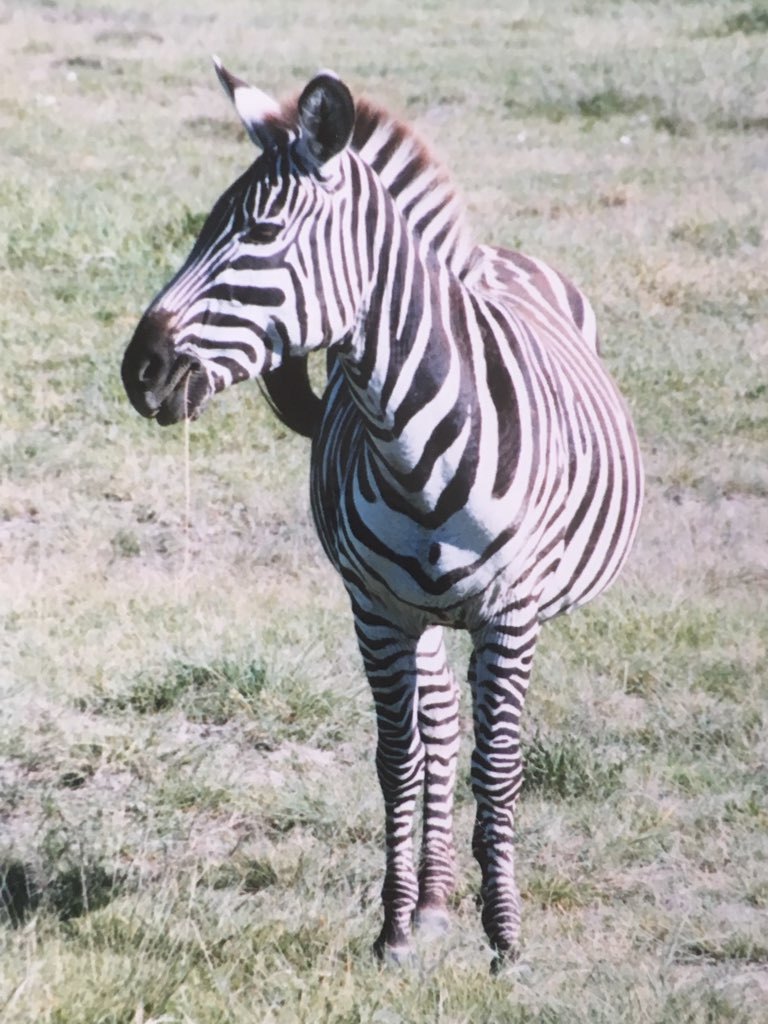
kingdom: Animalia
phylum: Chordata
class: Mammalia
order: Perissodactyla
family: Equidae
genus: Equus
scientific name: Equus quagga
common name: Plains zebra
